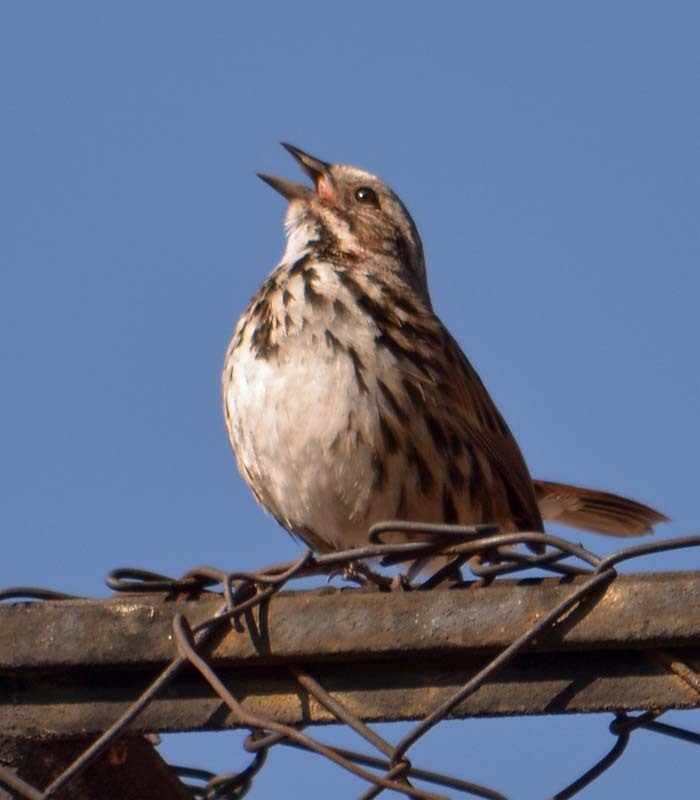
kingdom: Animalia
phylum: Chordata
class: Aves
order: Passeriformes
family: Passerellidae
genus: Melospiza
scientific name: Melospiza melodia
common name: Song sparrow
